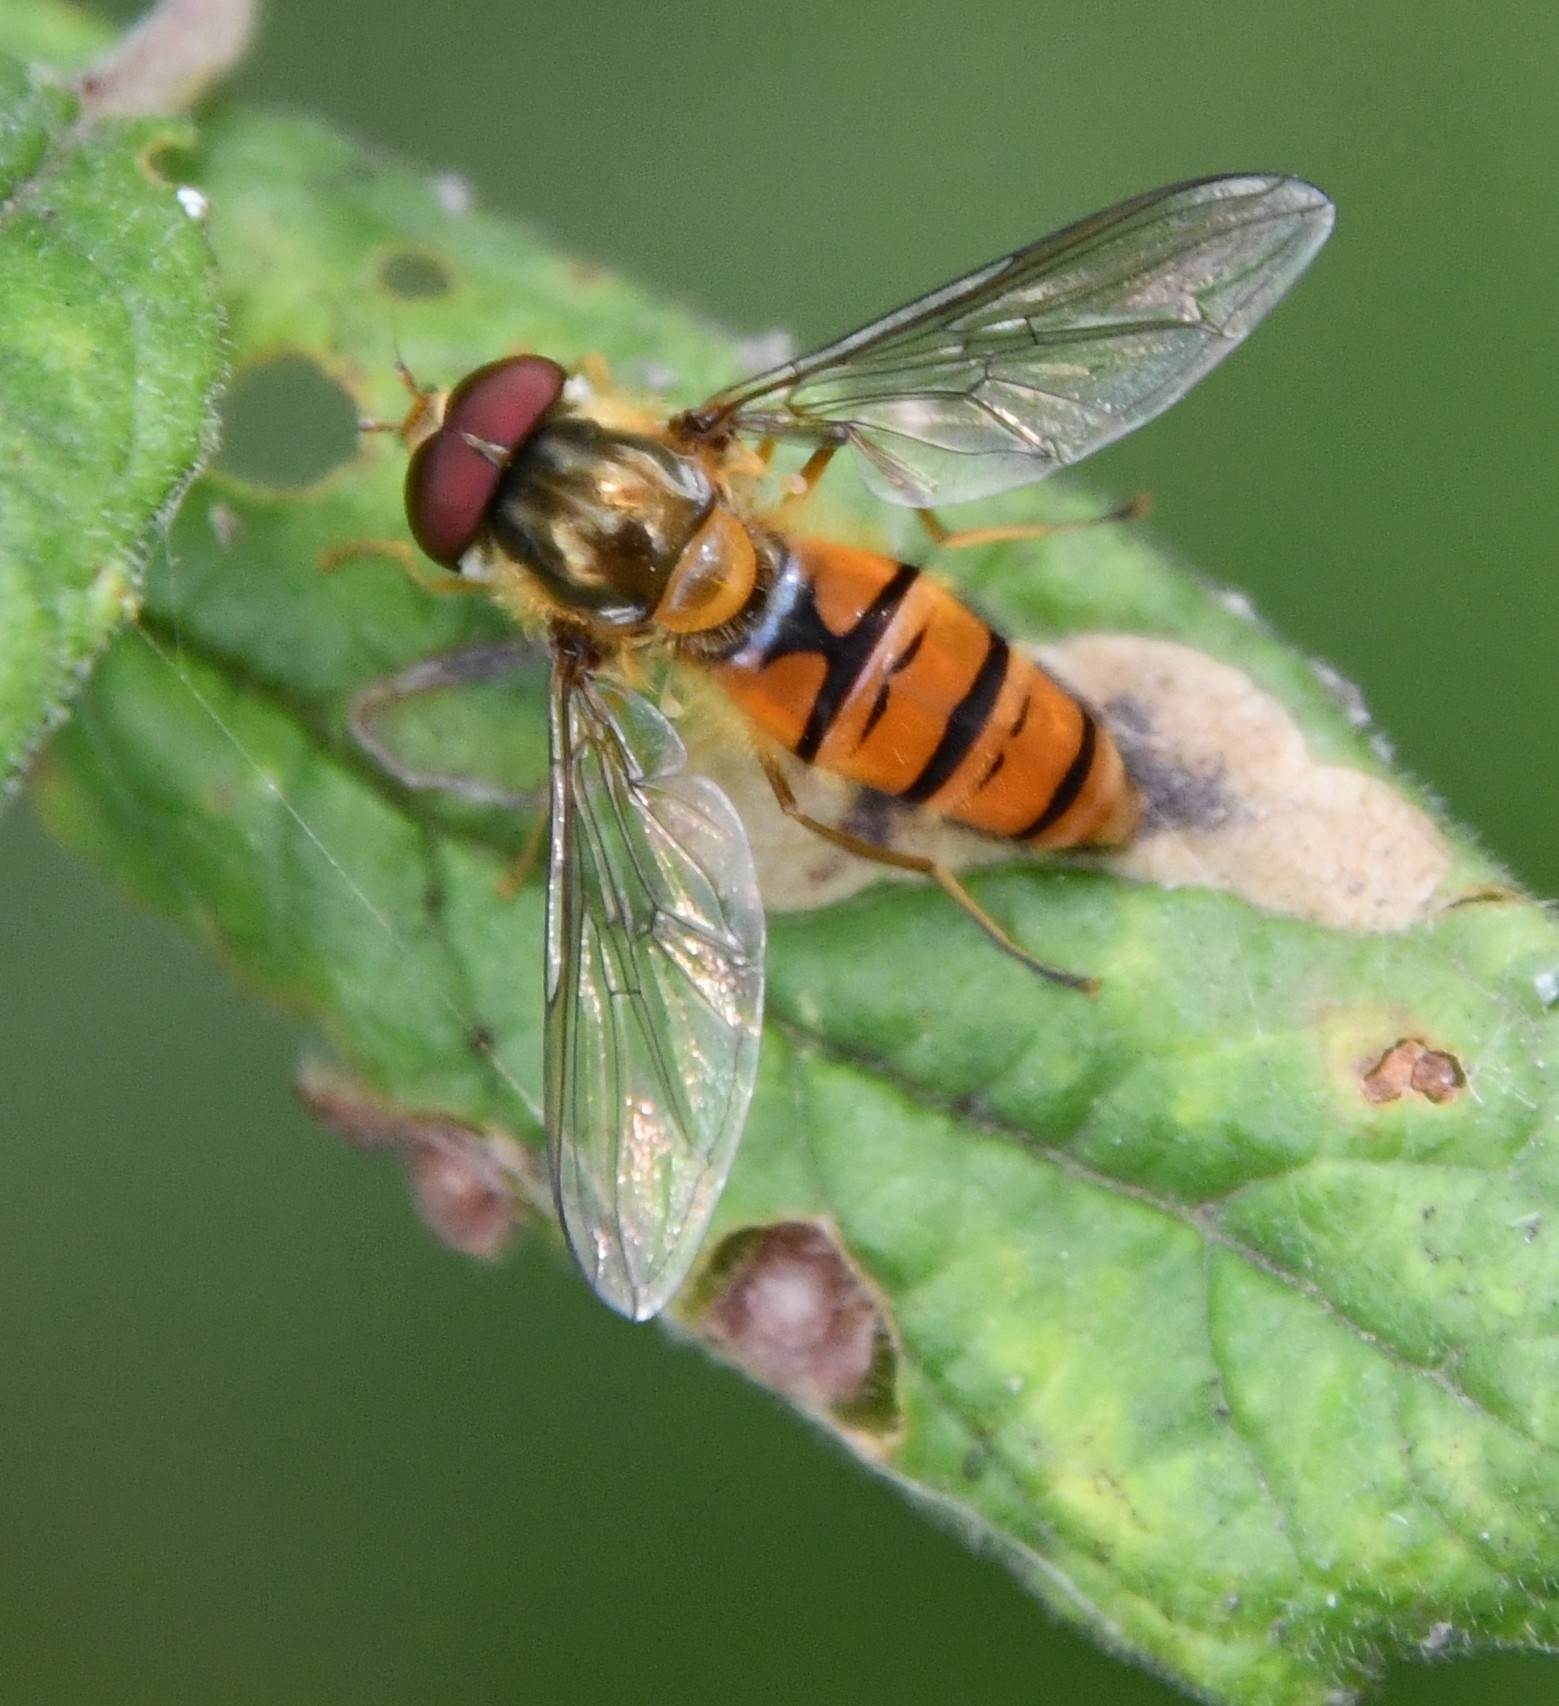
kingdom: Animalia
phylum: Arthropoda
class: Insecta
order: Diptera
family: Syrphidae
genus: Episyrphus
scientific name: Episyrphus balteatus
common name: Marmalade hoverfly
